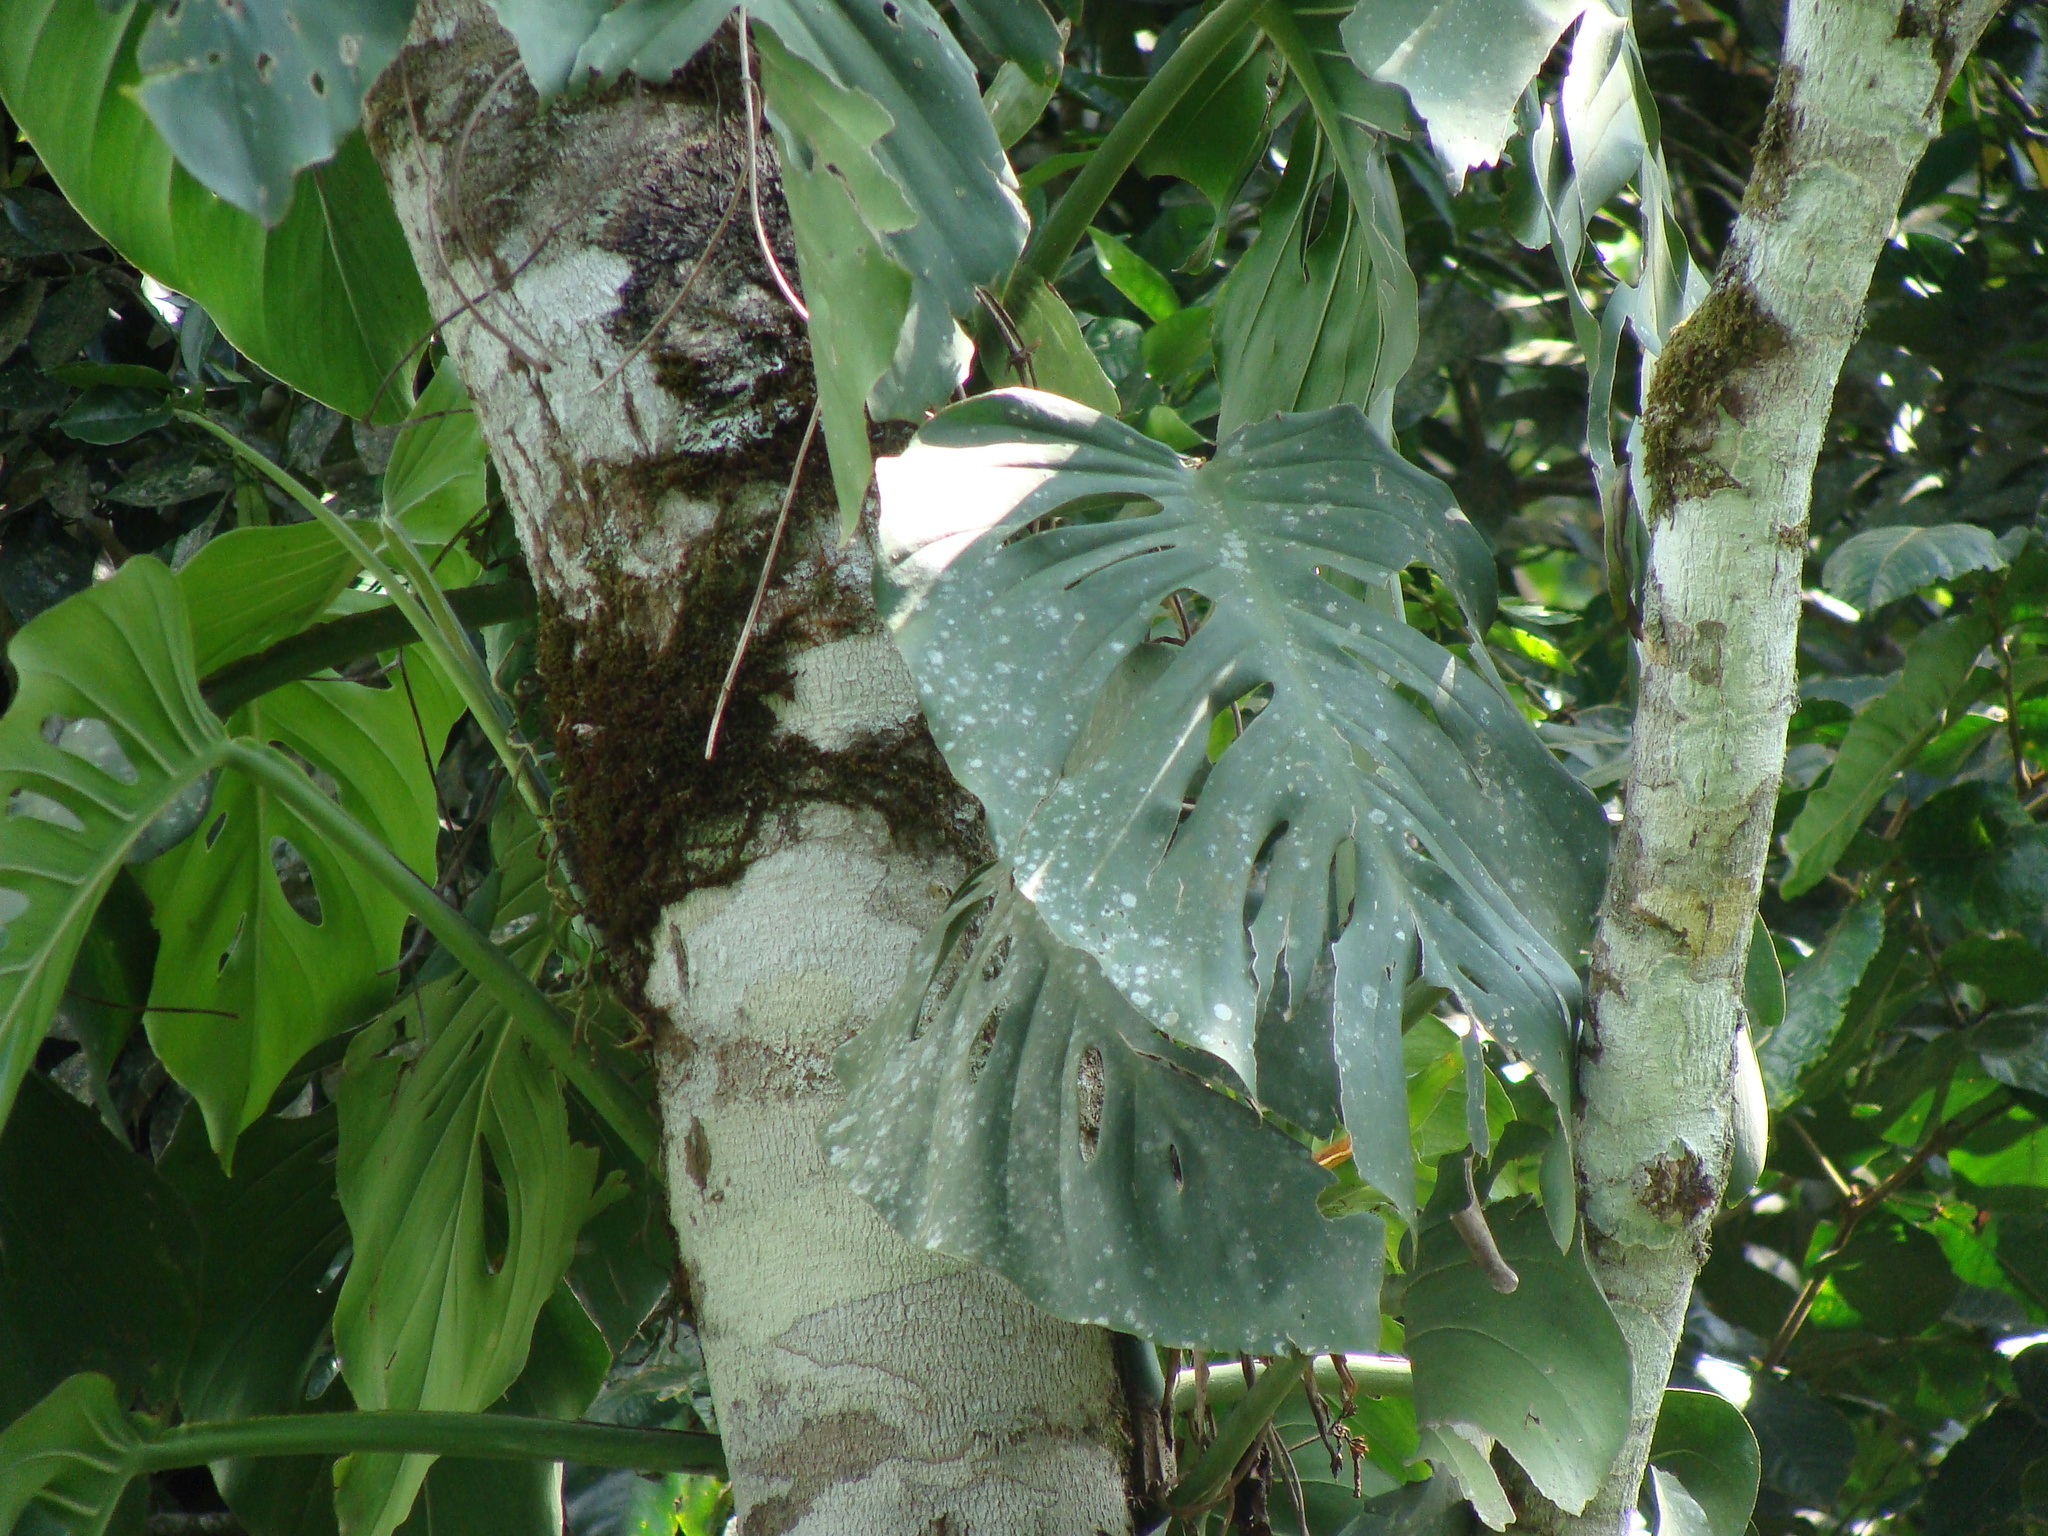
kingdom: Plantae
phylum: Tracheophyta
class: Liliopsida
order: Alismatales
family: Araceae
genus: Monstera
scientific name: Monstera acuminata
